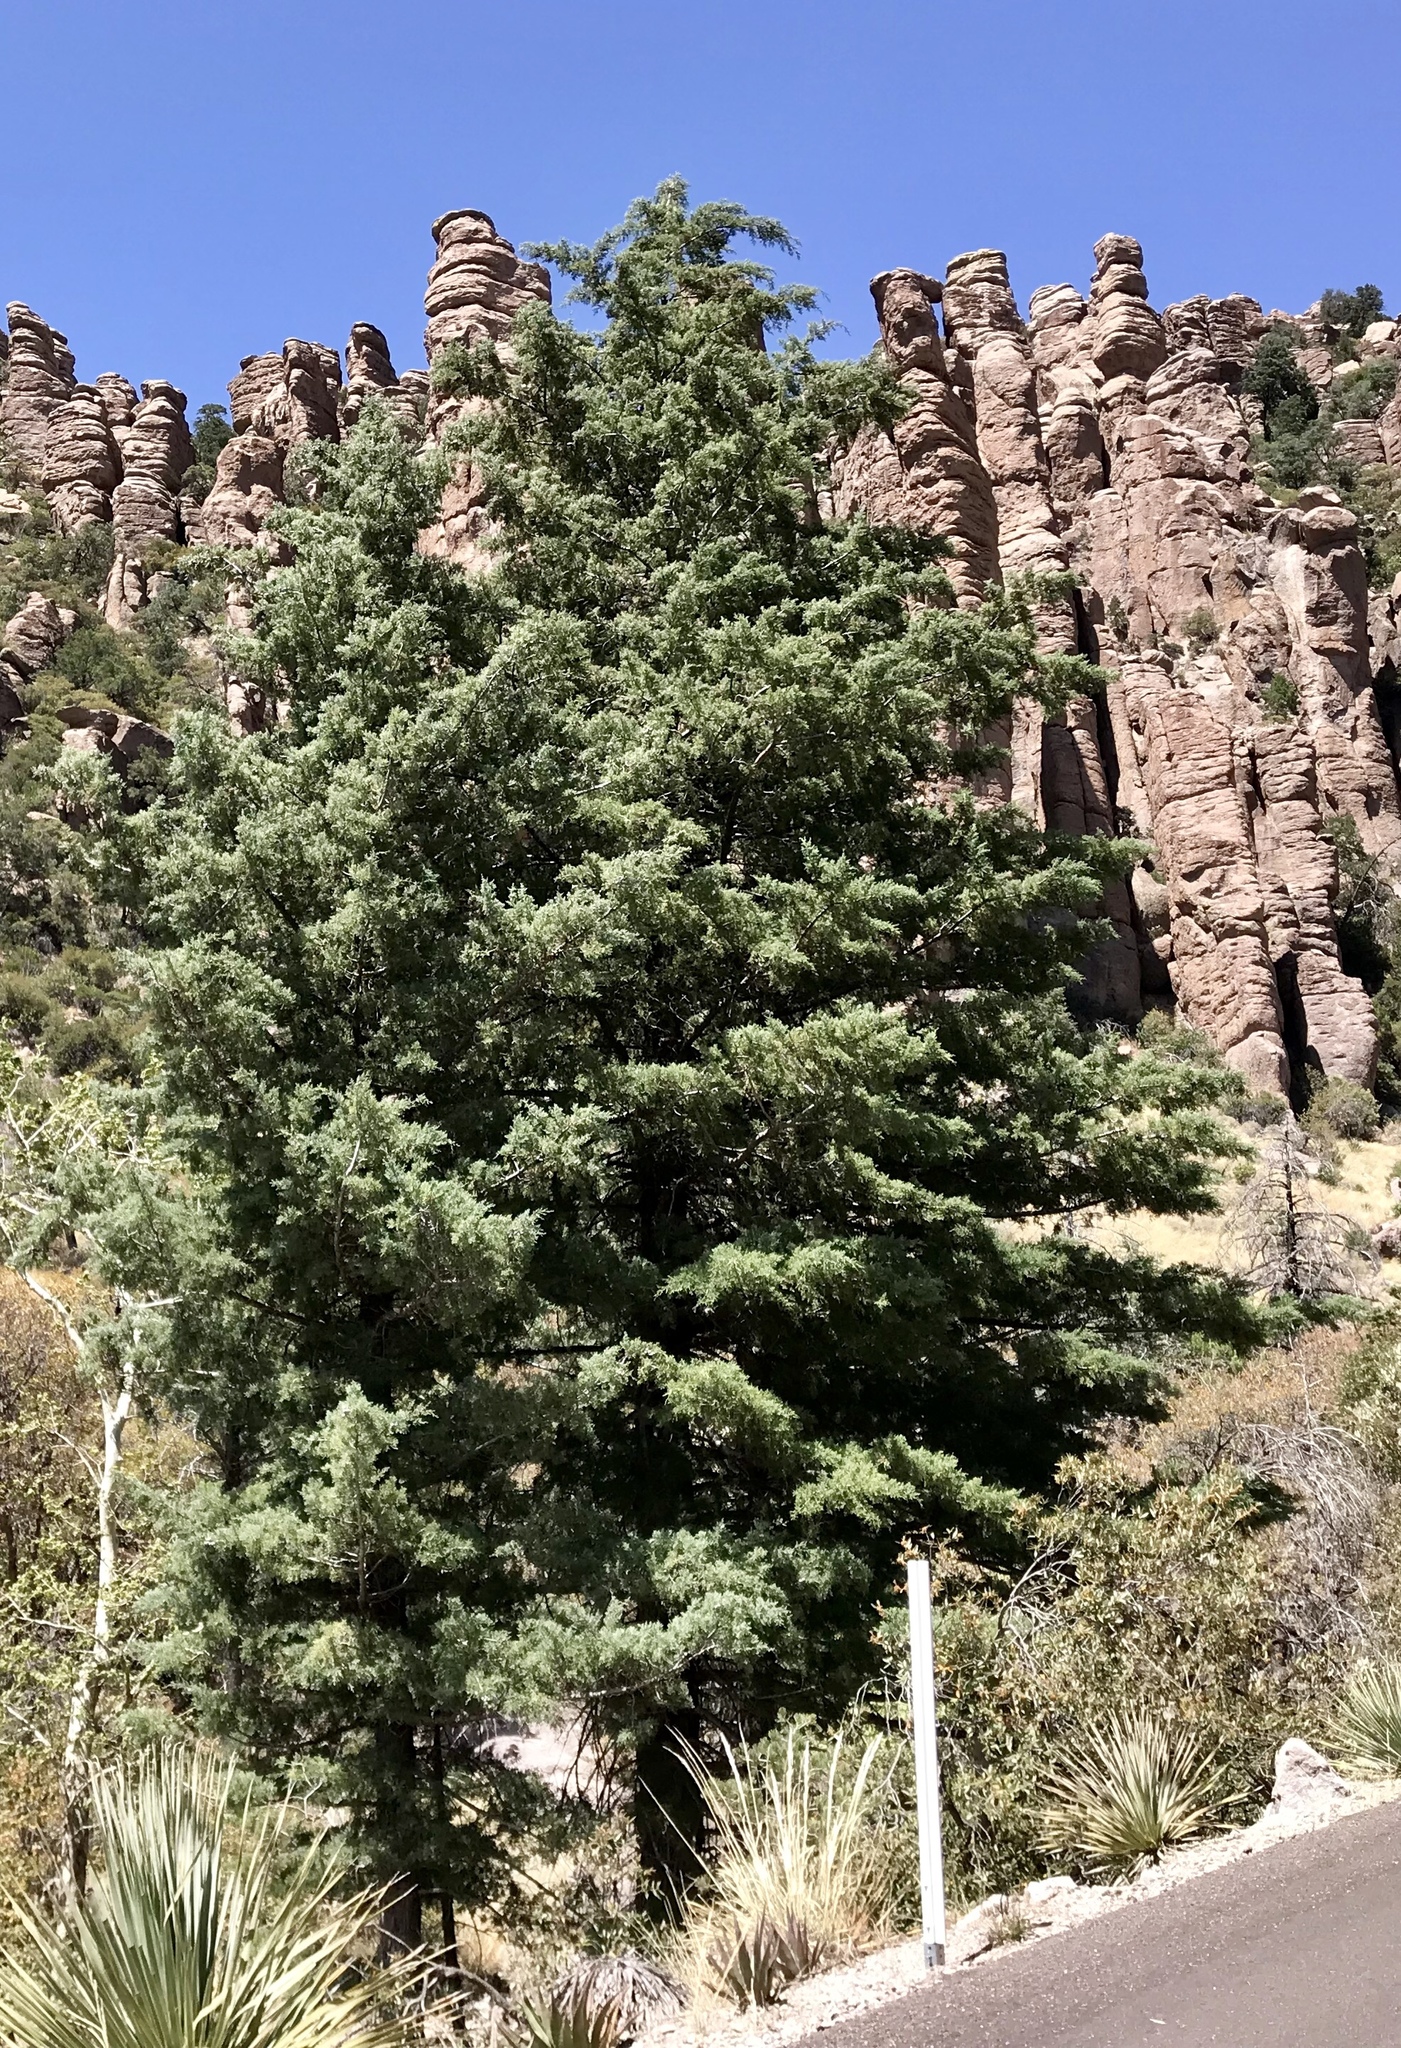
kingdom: Plantae
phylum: Tracheophyta
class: Pinopsida
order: Pinales
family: Cupressaceae
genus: Cupressus
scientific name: Cupressus arizonica
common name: Arizona cypress
